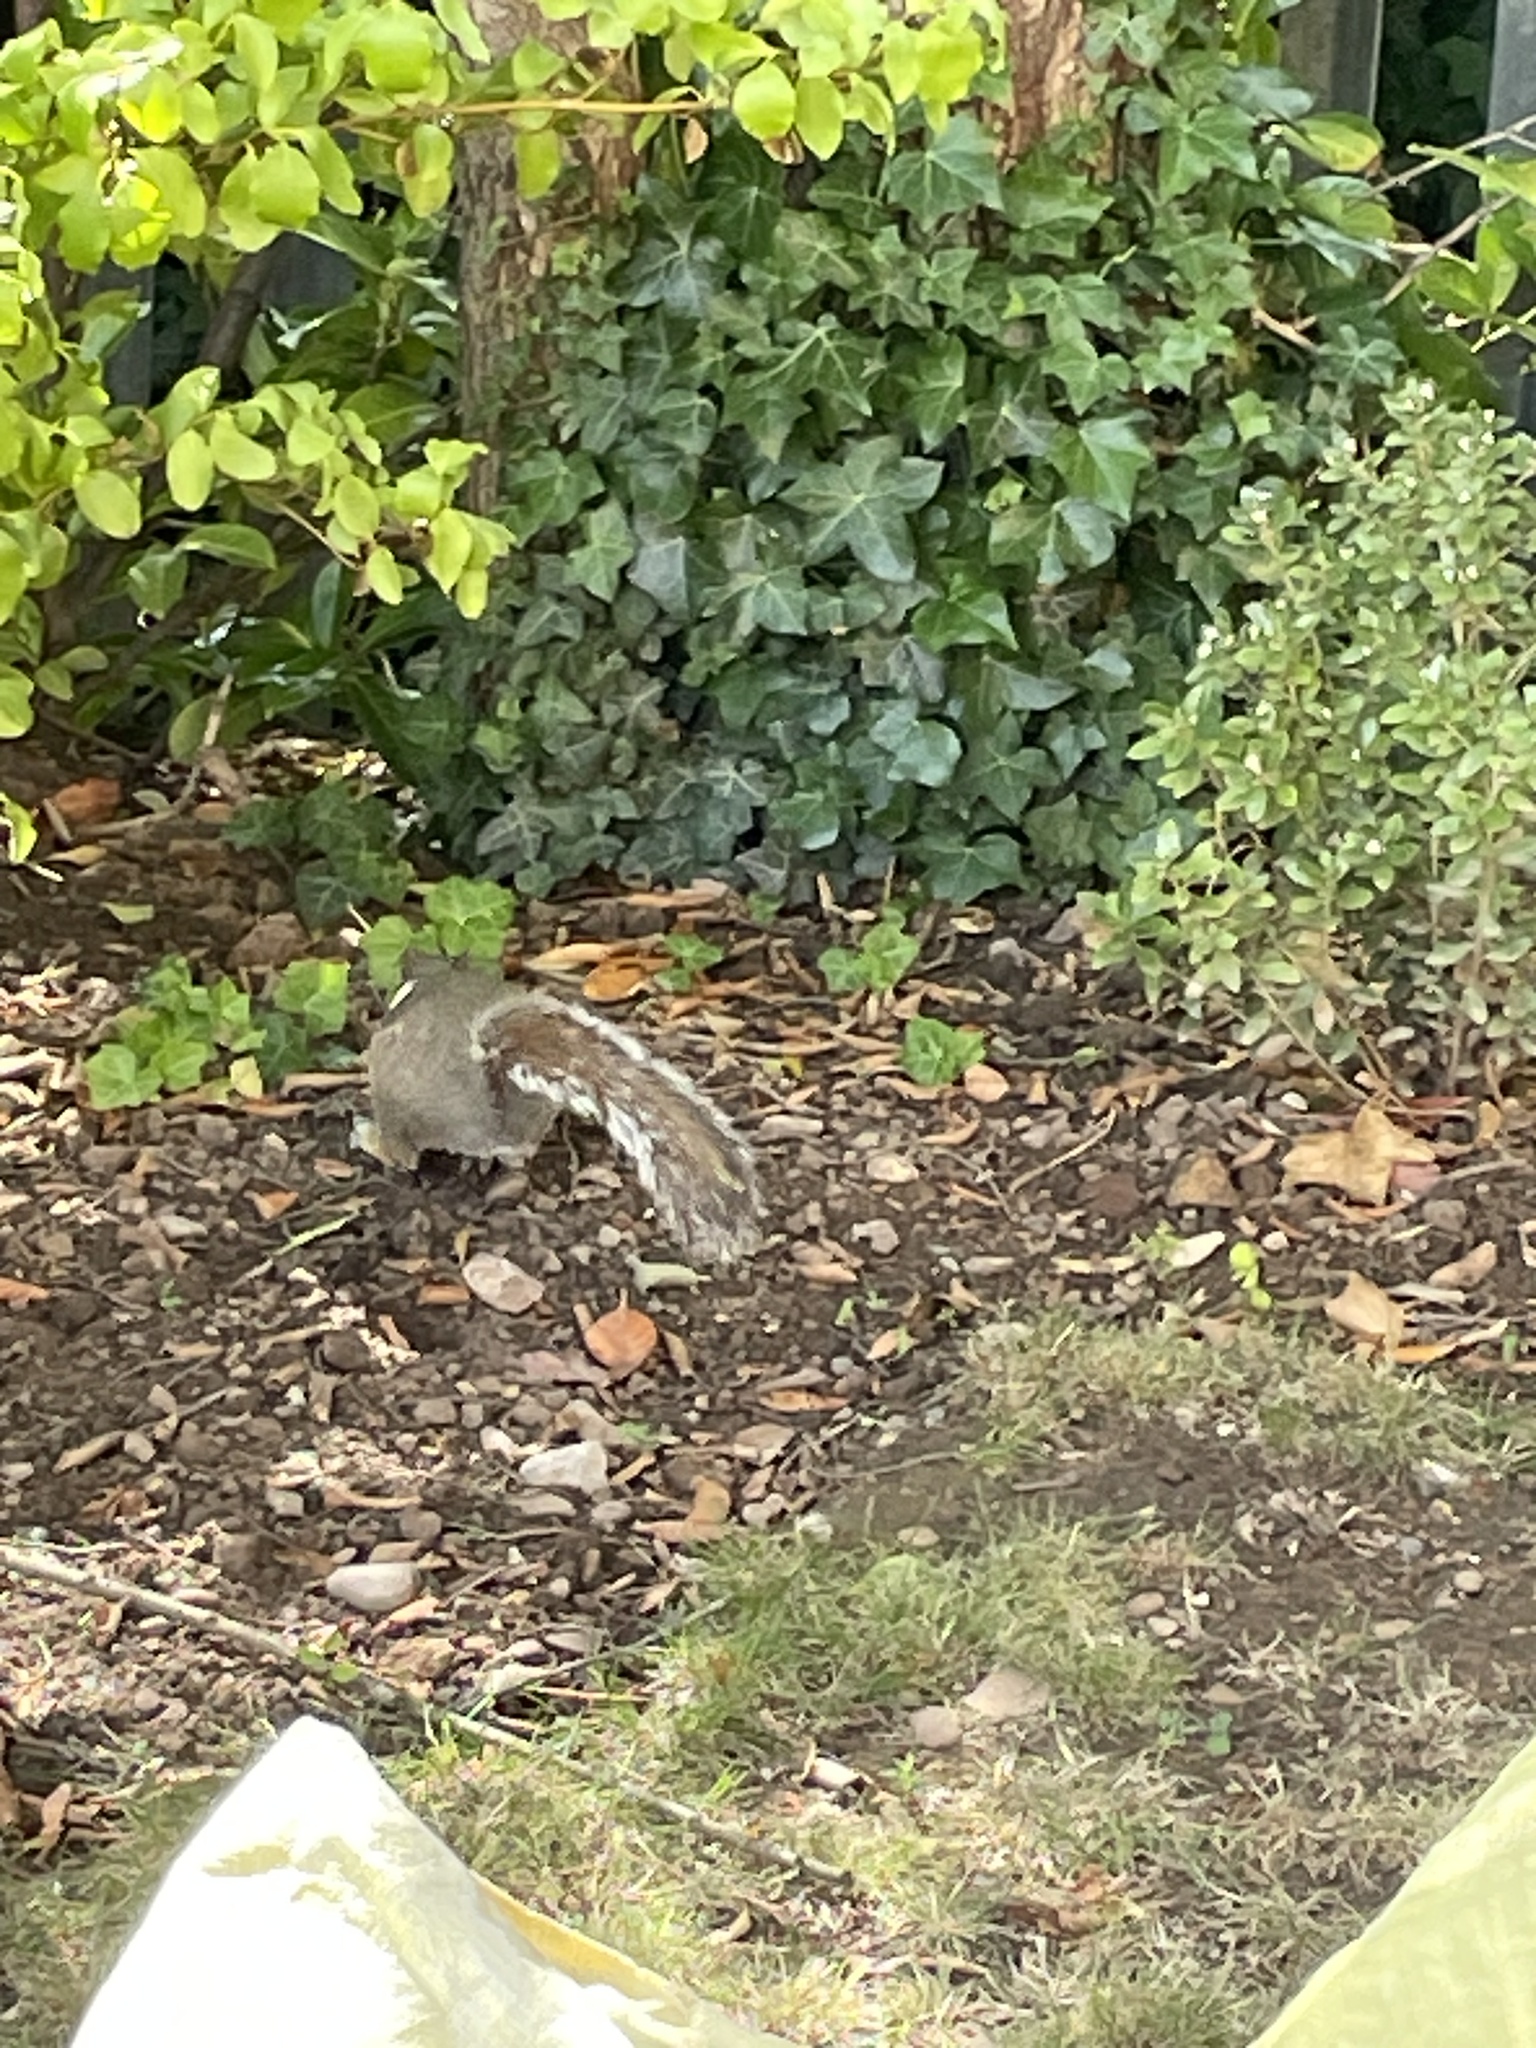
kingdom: Animalia
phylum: Chordata
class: Mammalia
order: Rodentia
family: Sciuridae
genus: Sciurus
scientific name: Sciurus carolinensis
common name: Eastern gray squirrel
